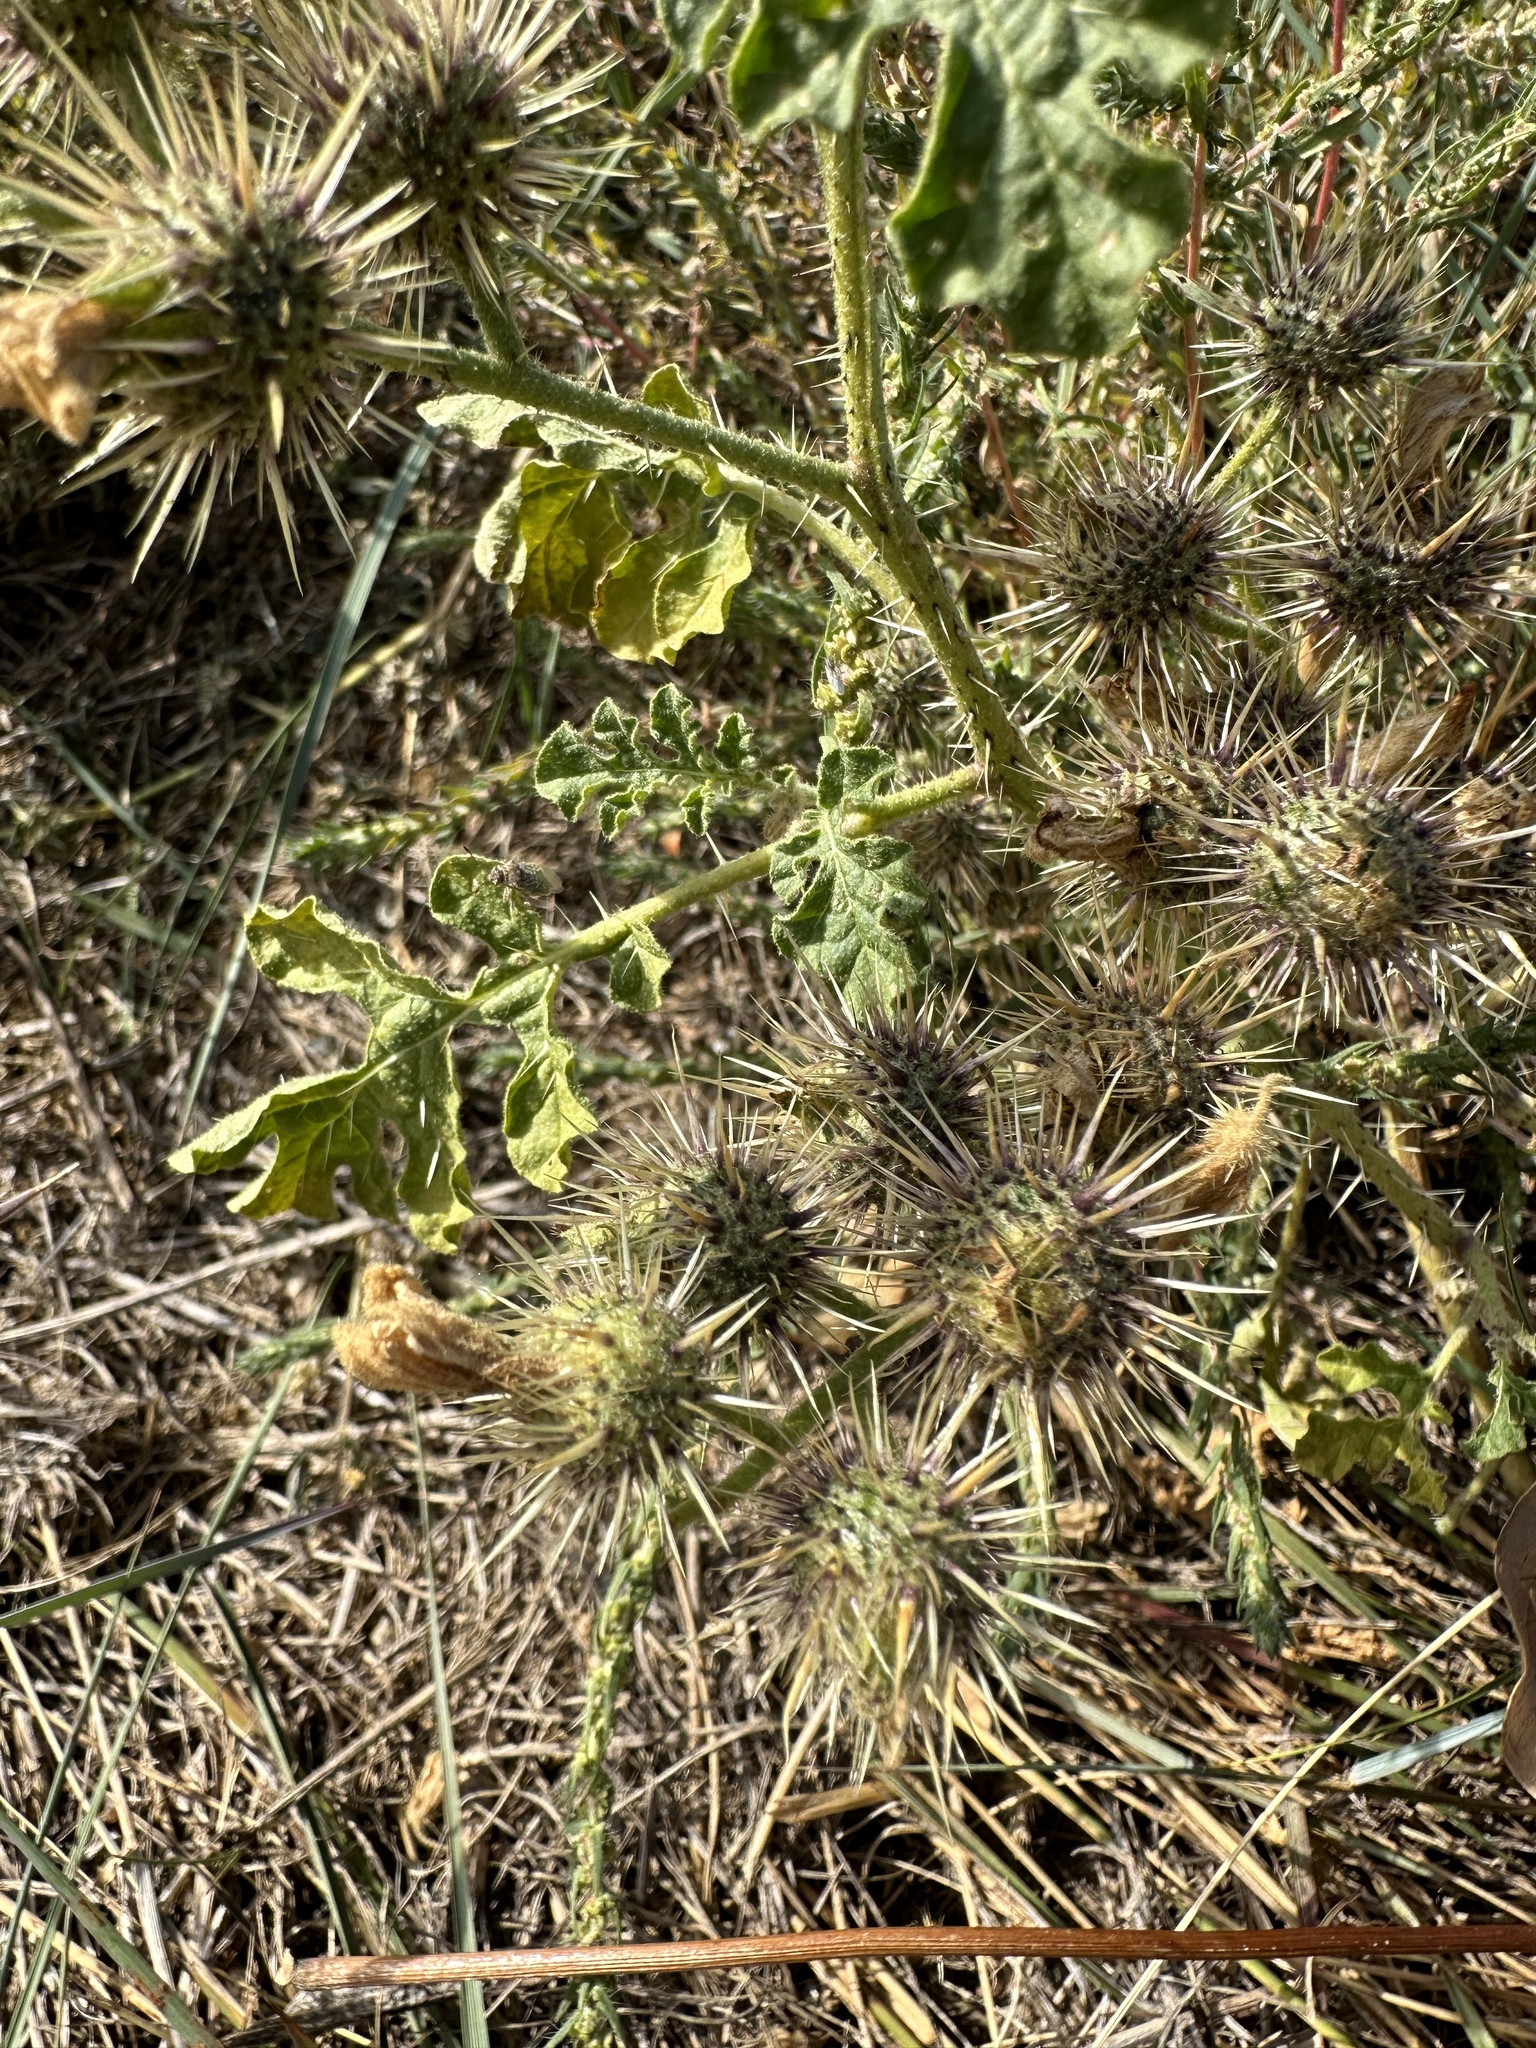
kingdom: Plantae
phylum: Tracheophyta
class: Magnoliopsida
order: Solanales
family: Solanaceae
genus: Solanum
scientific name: Solanum angustifolium
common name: Buffalobur nightshade
